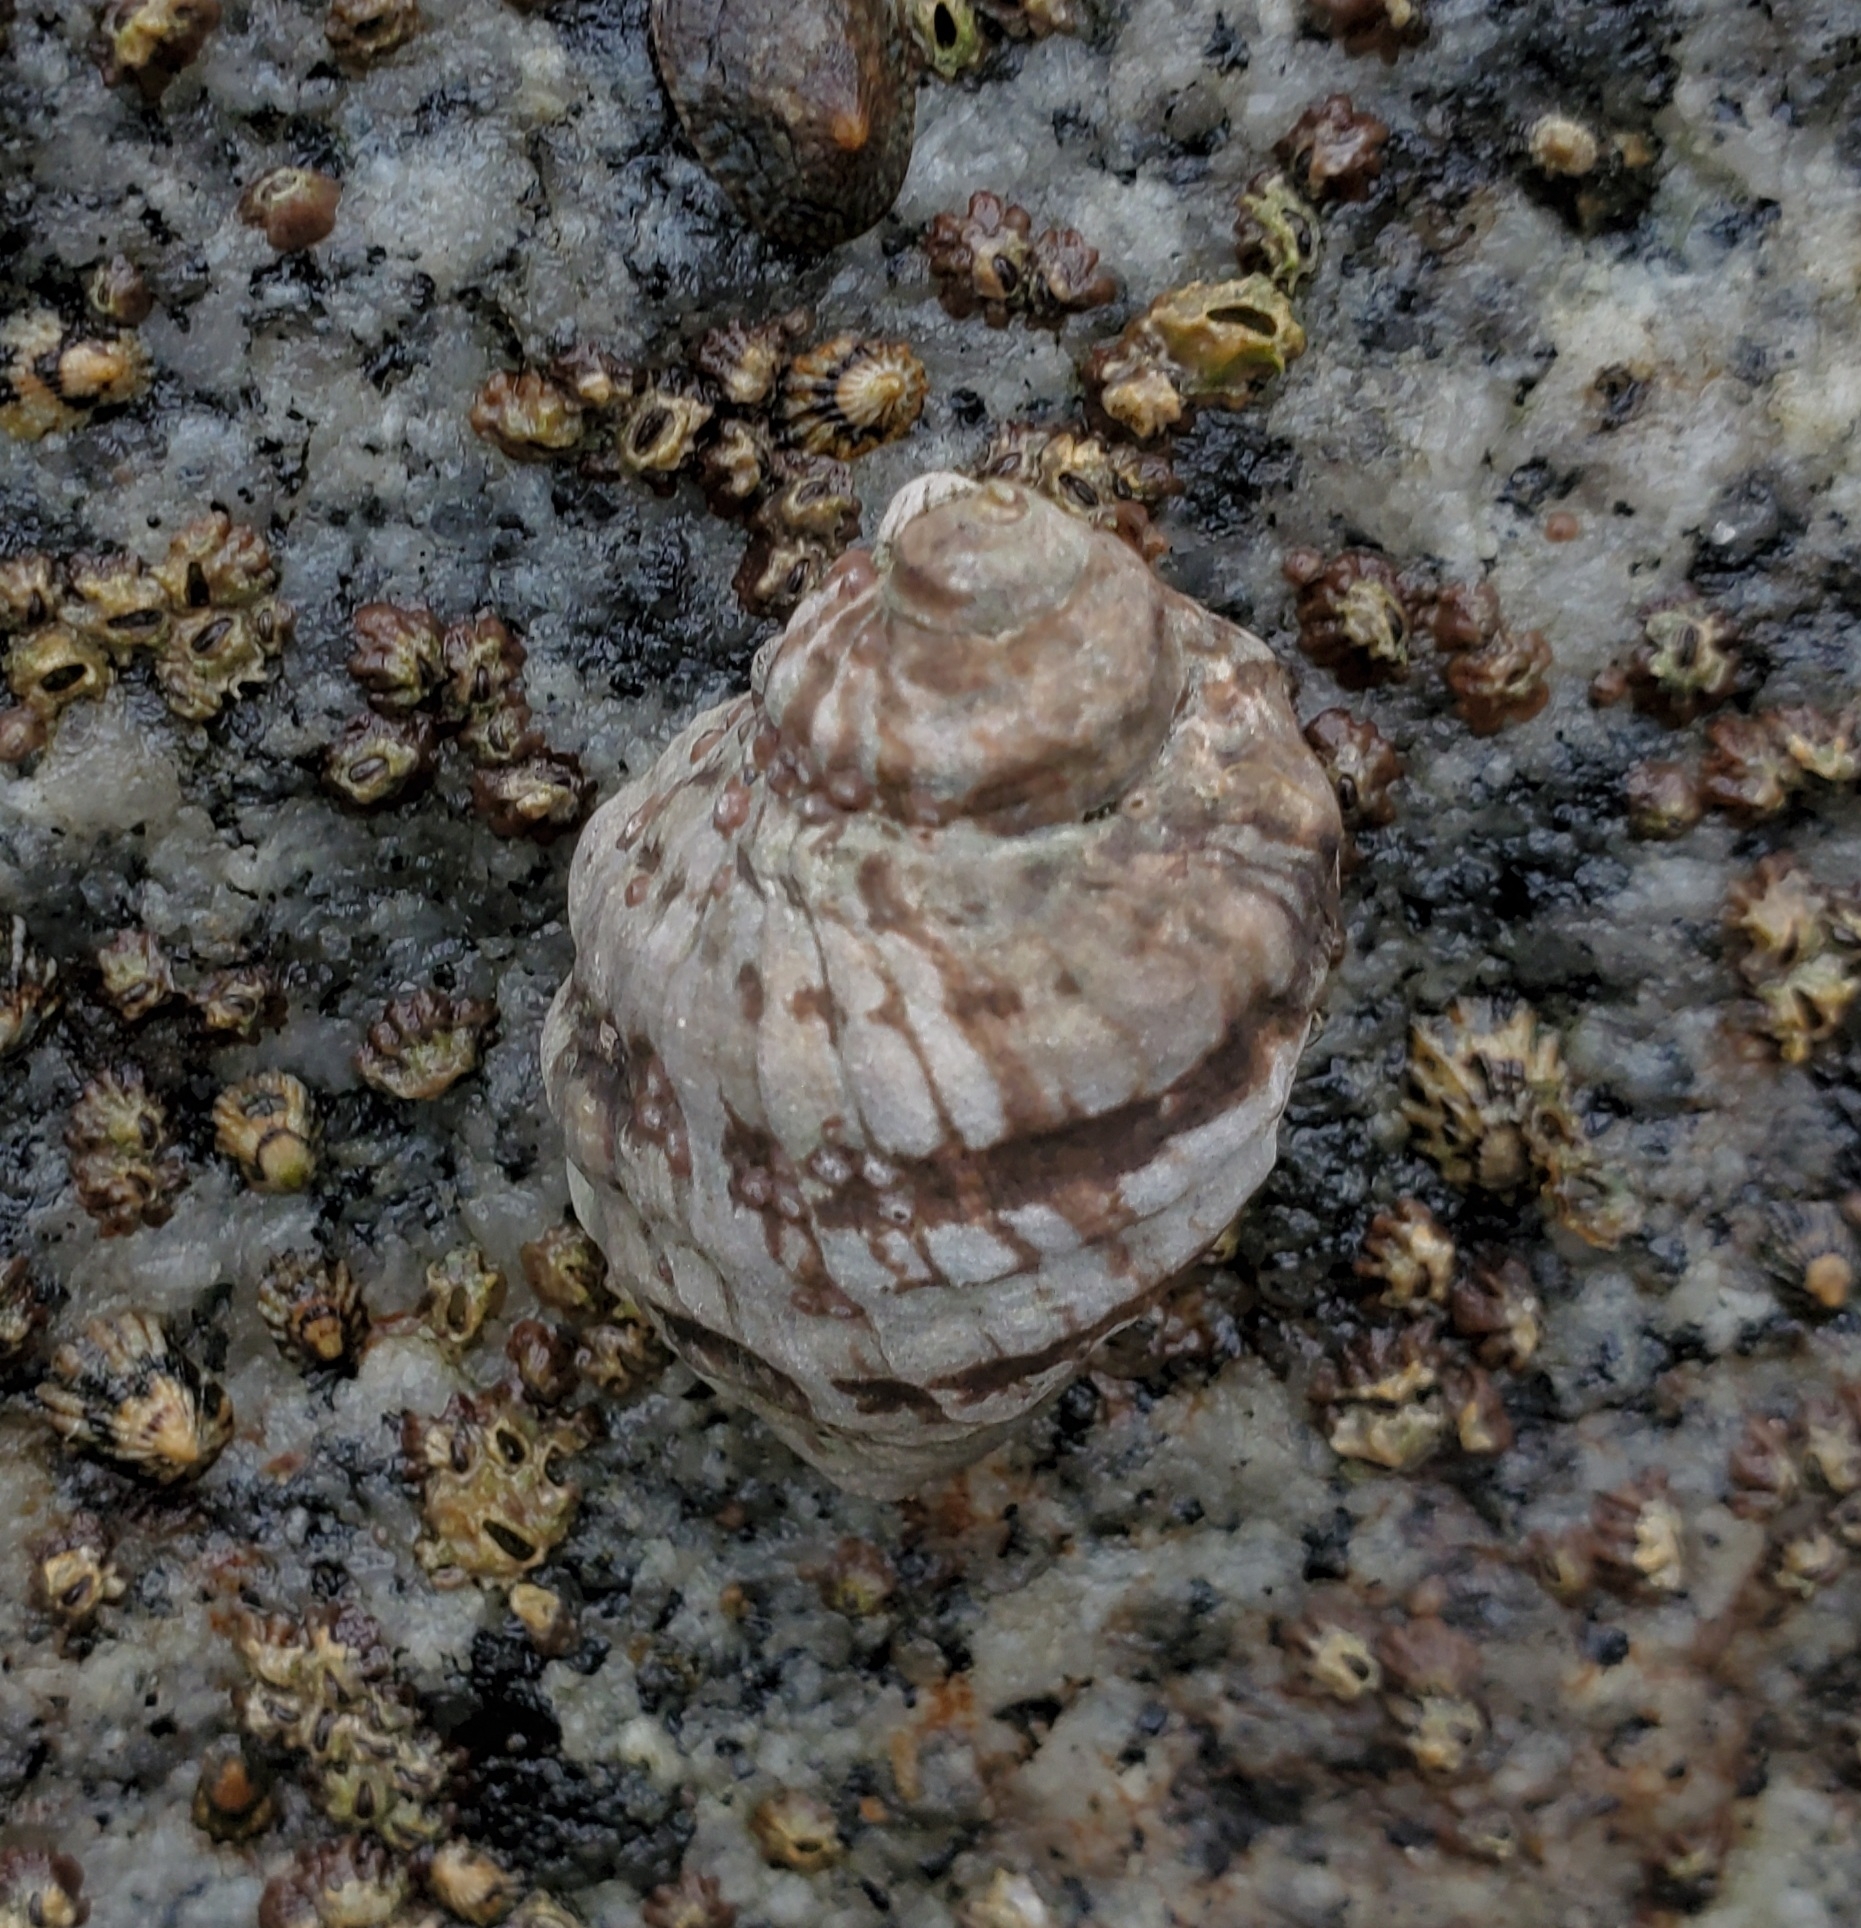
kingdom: Animalia
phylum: Mollusca
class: Gastropoda
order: Neogastropoda
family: Muricidae
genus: Mexacanthina
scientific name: Mexacanthina lugubris
